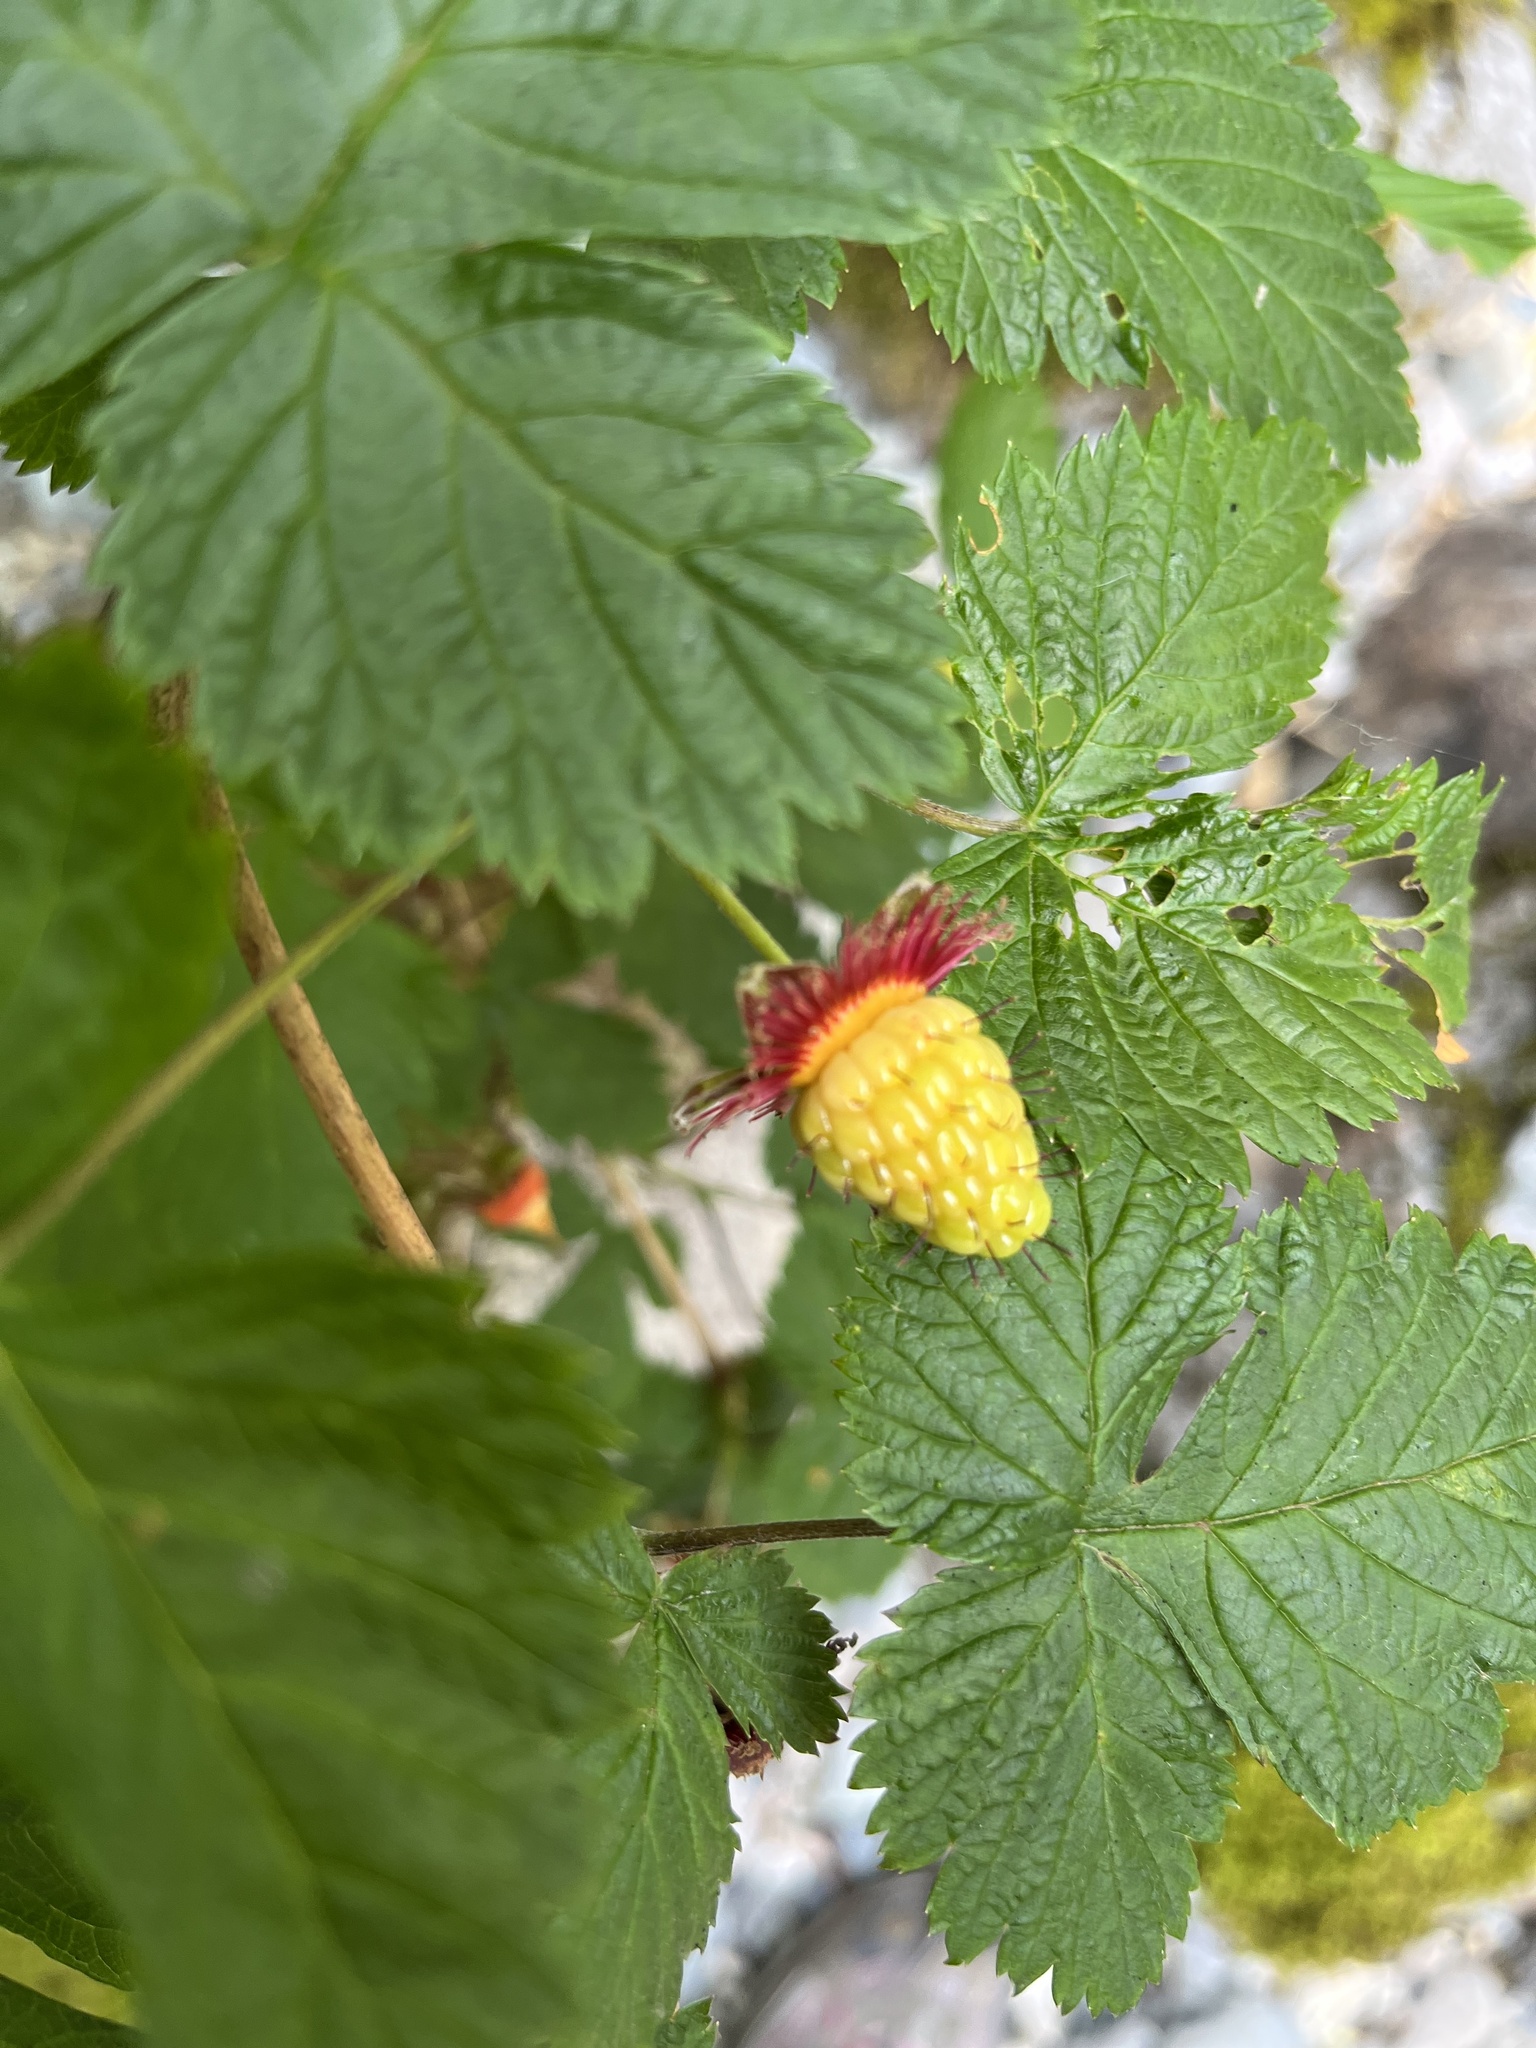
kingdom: Plantae
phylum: Tracheophyta
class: Magnoliopsida
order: Rosales
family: Rosaceae
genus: Rubus
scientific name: Rubus spectabilis
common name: Salmonberry
